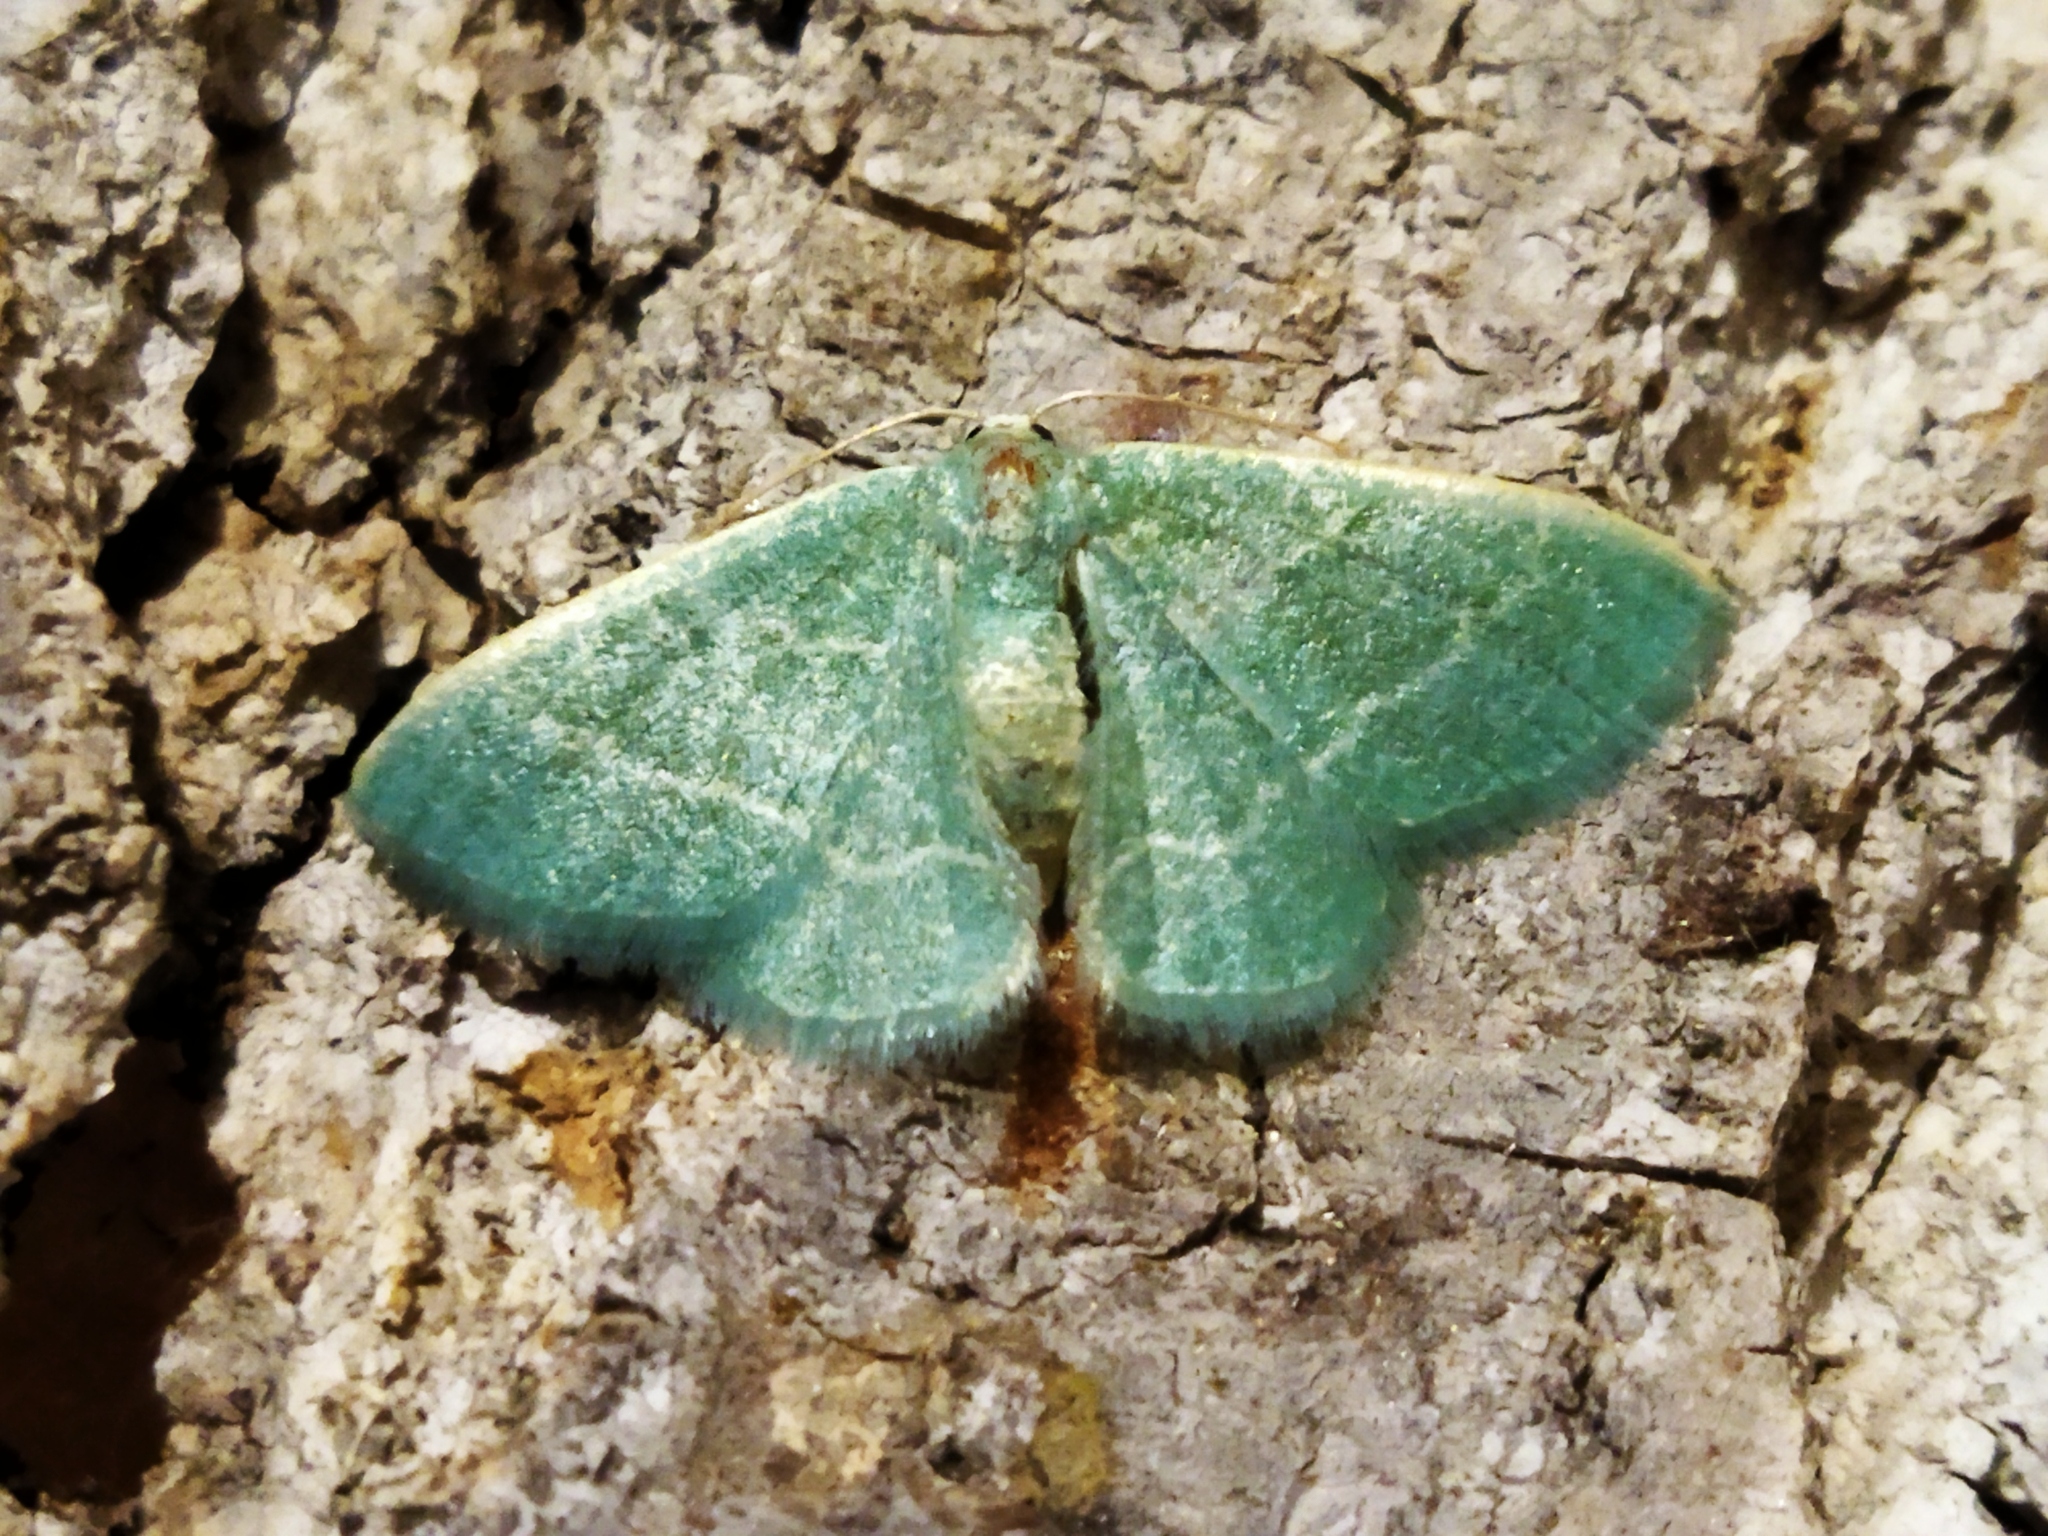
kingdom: Animalia
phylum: Arthropoda
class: Insecta
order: Lepidoptera
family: Geometridae
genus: Chlorissa
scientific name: Chlorissa etruscaria
